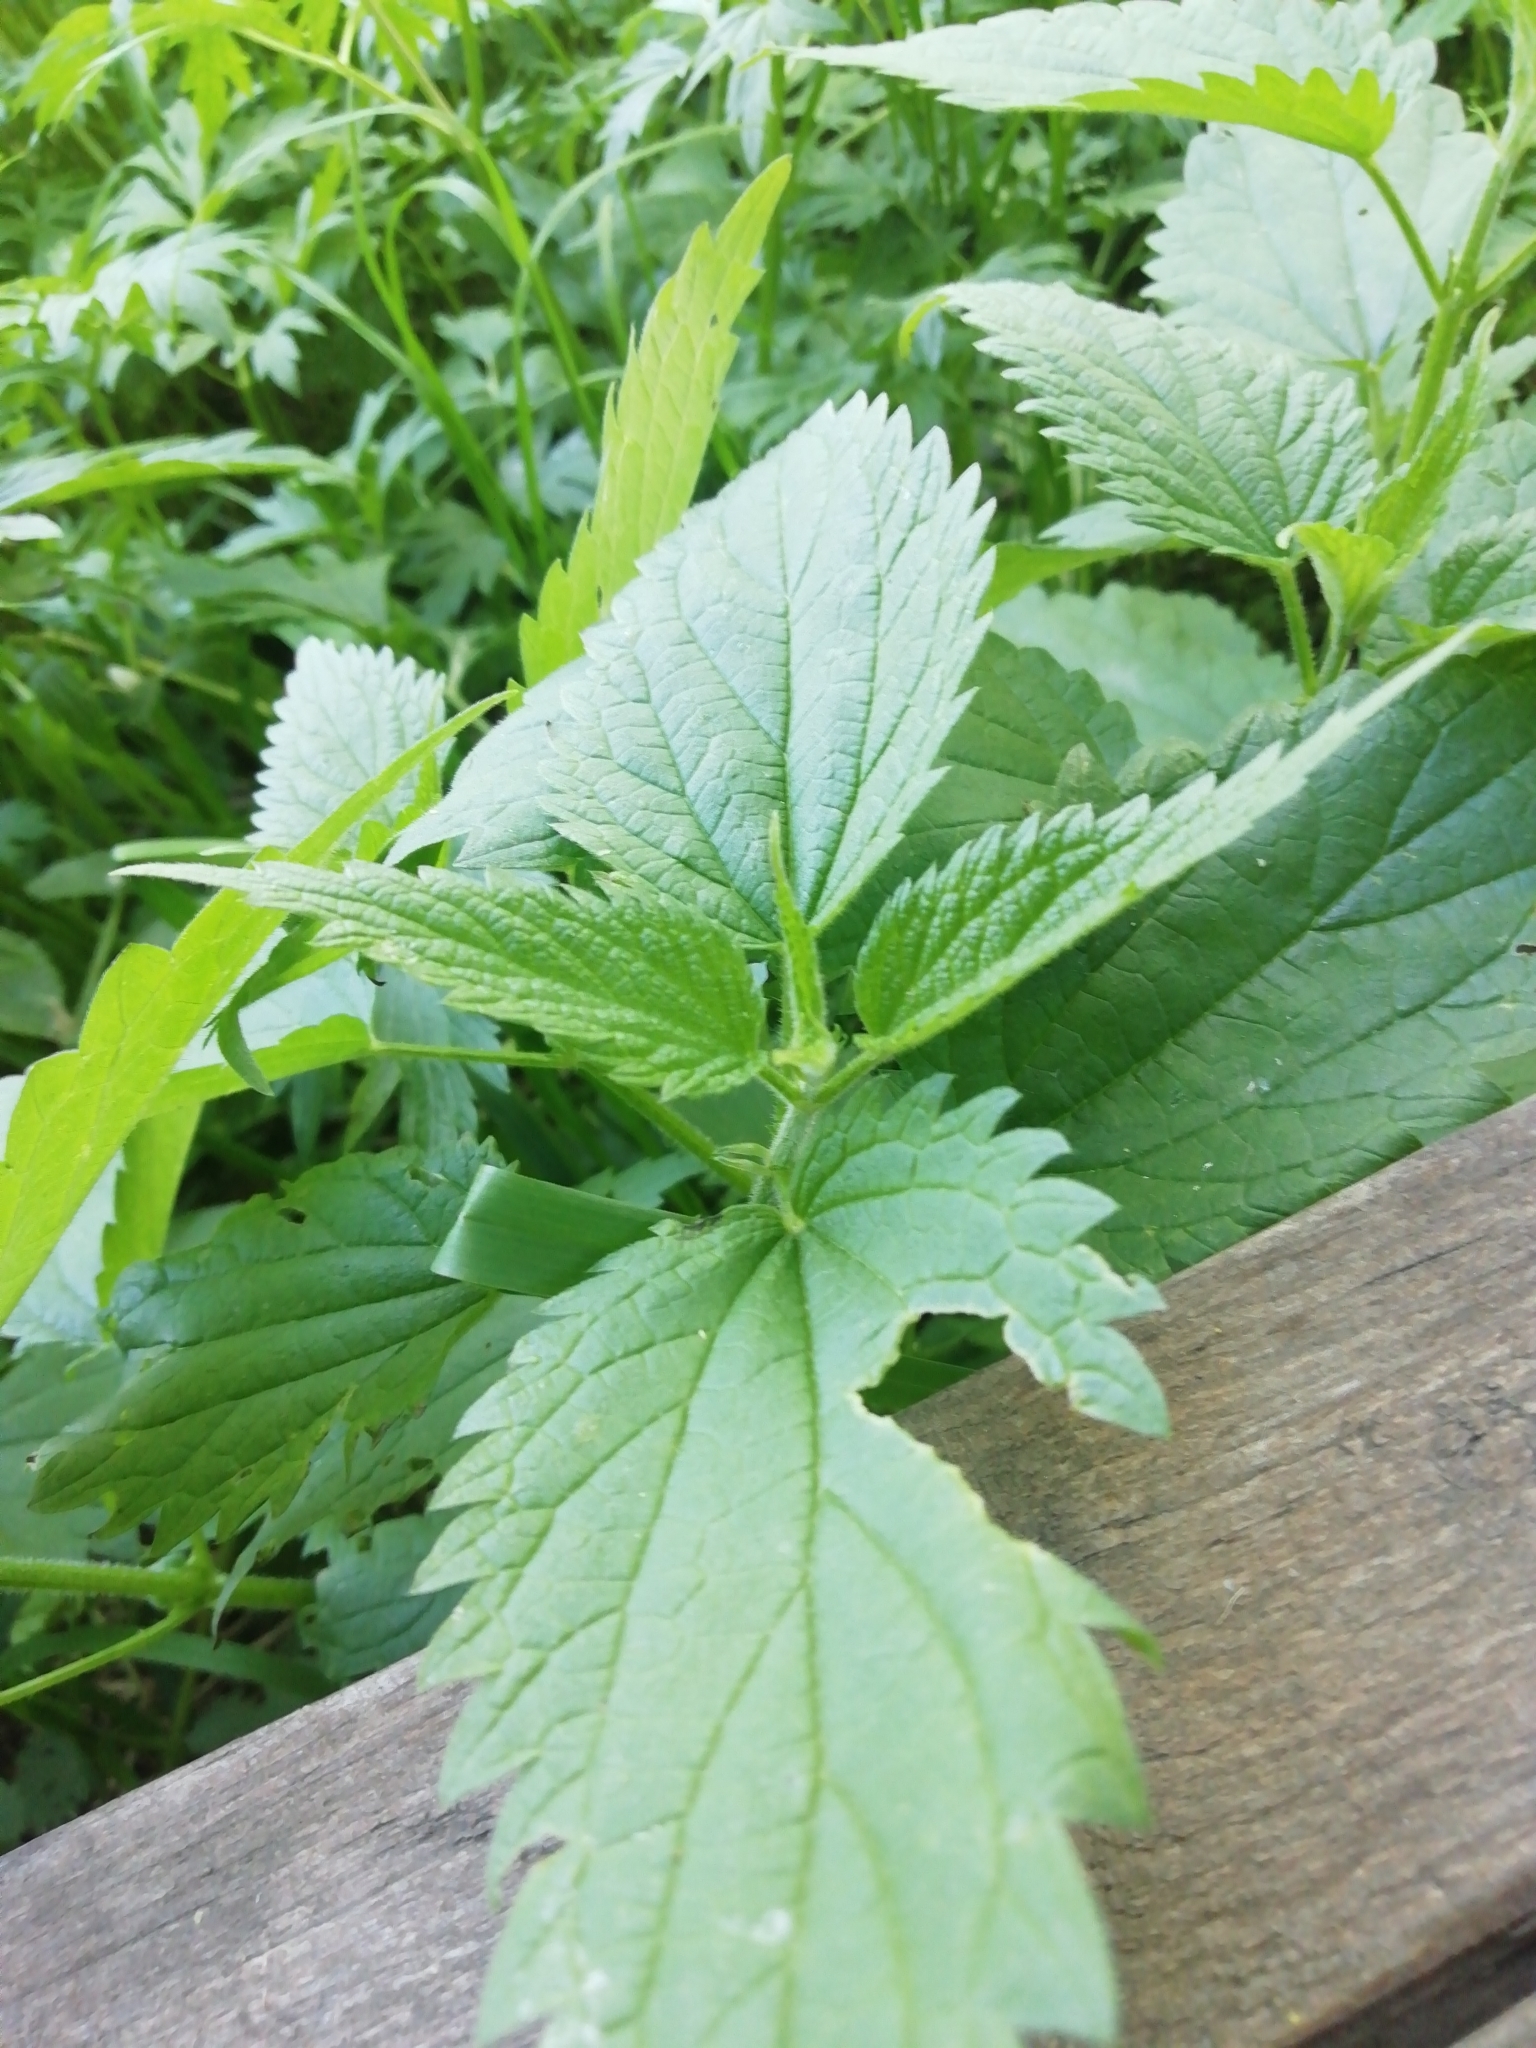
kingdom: Plantae
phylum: Tracheophyta
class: Magnoliopsida
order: Rosales
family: Urticaceae
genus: Urtica
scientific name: Urtica dioica
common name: Common nettle
